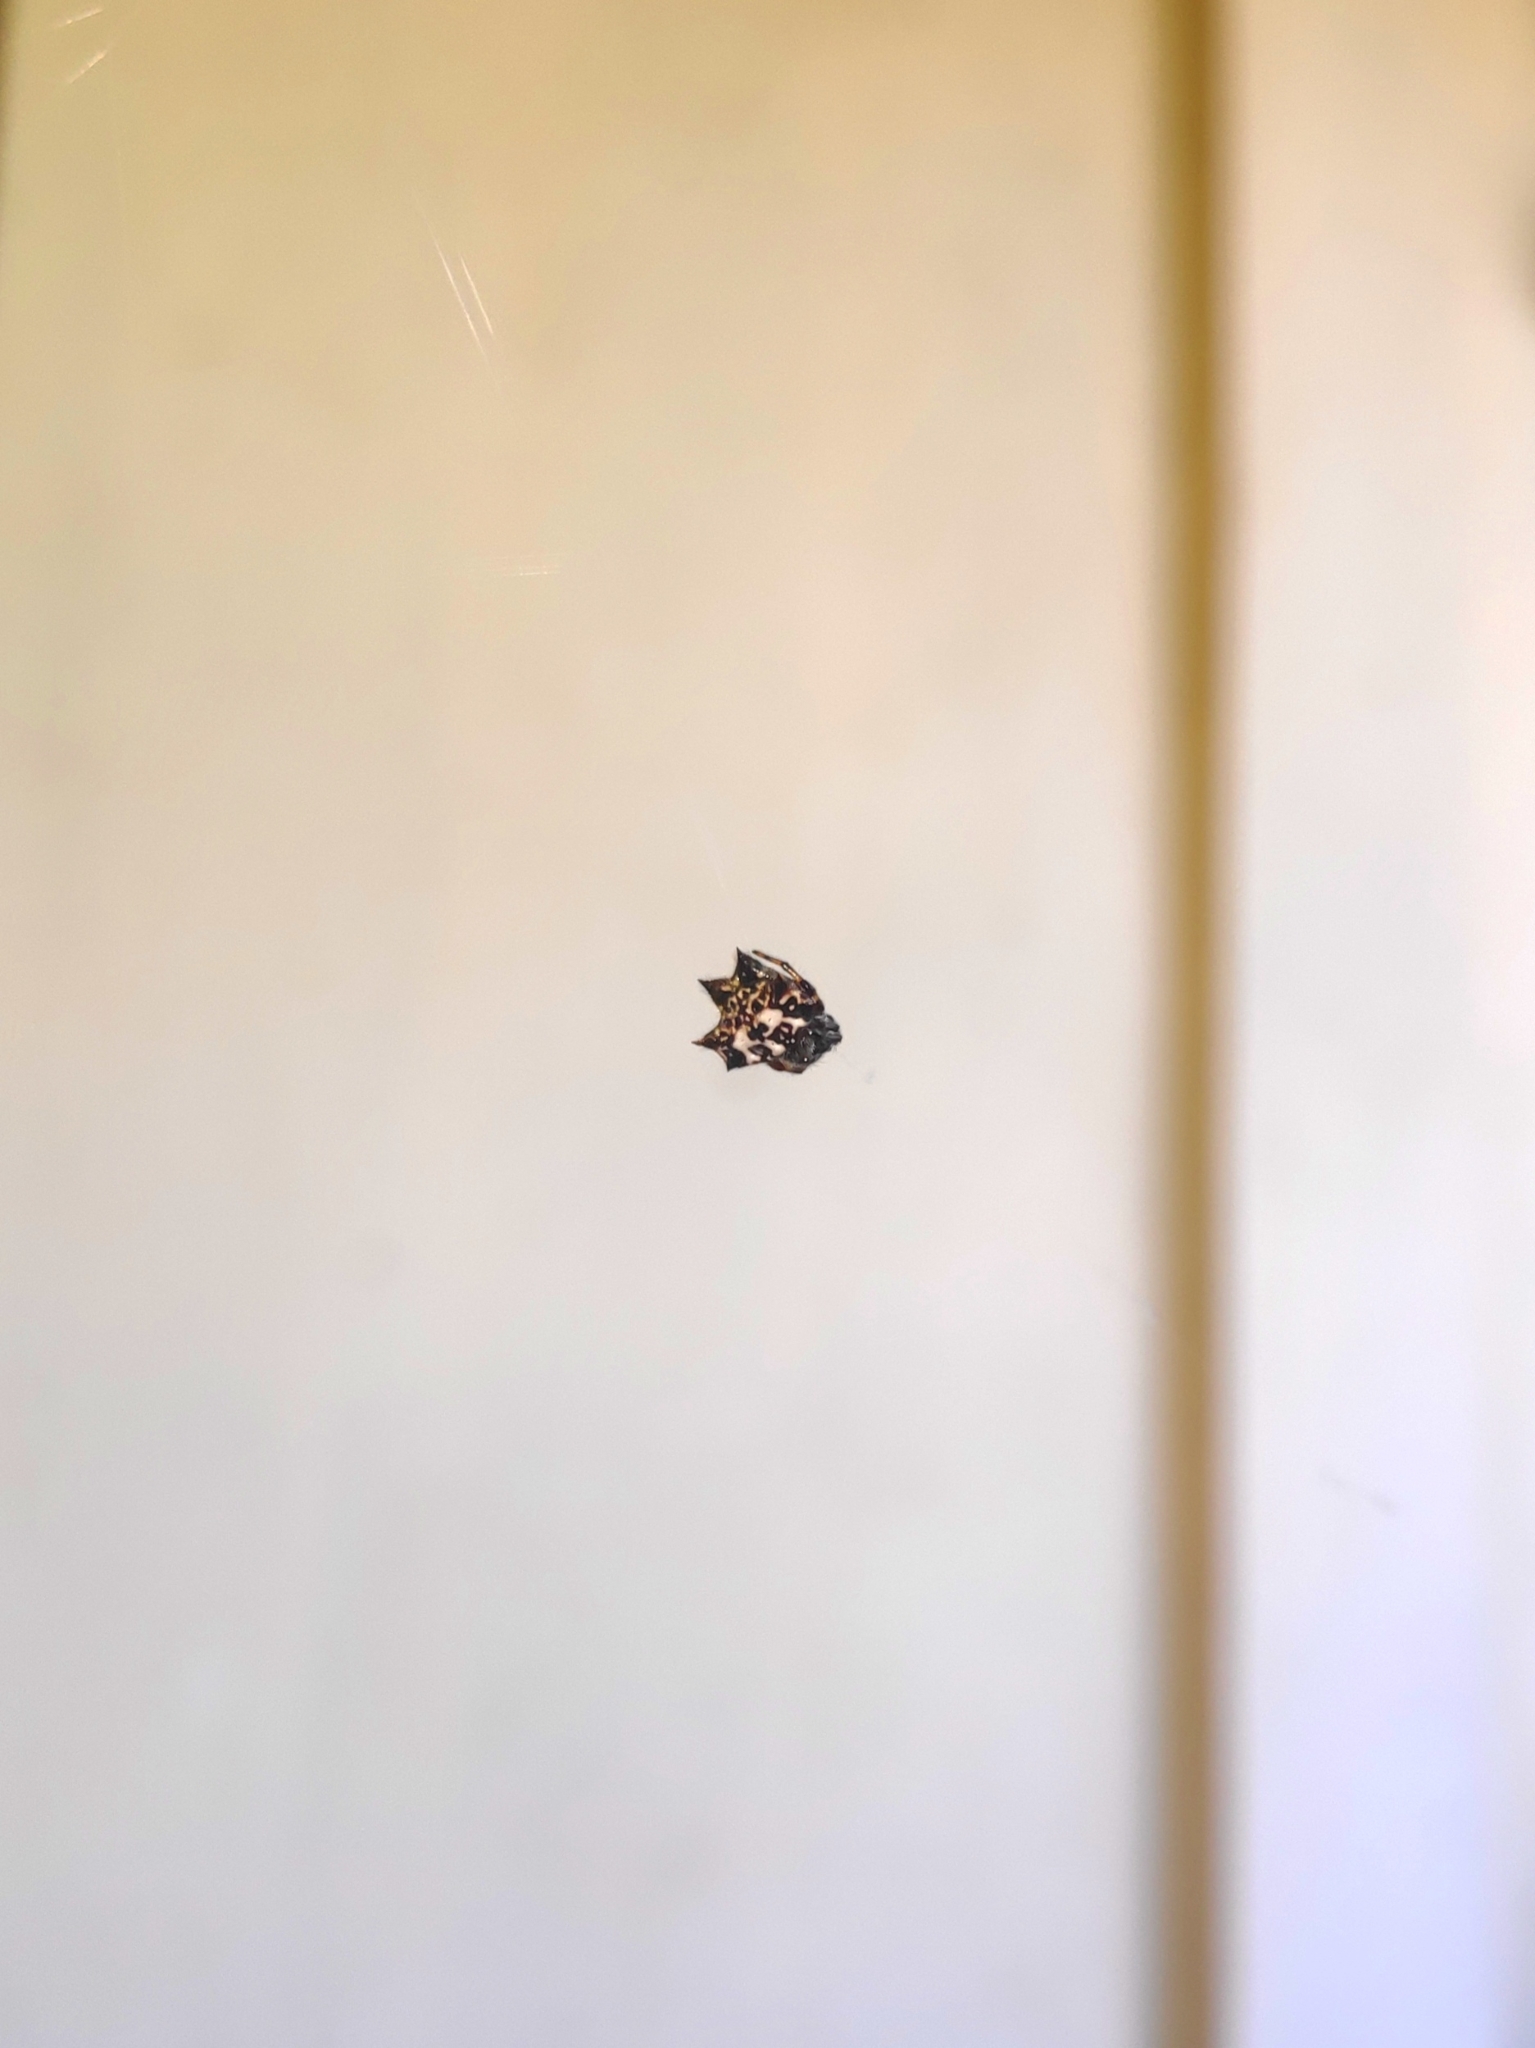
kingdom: Animalia
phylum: Arthropoda
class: Arachnida
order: Araneae
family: Araneidae
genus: Gasteracantha
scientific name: Gasteracantha kuhli
